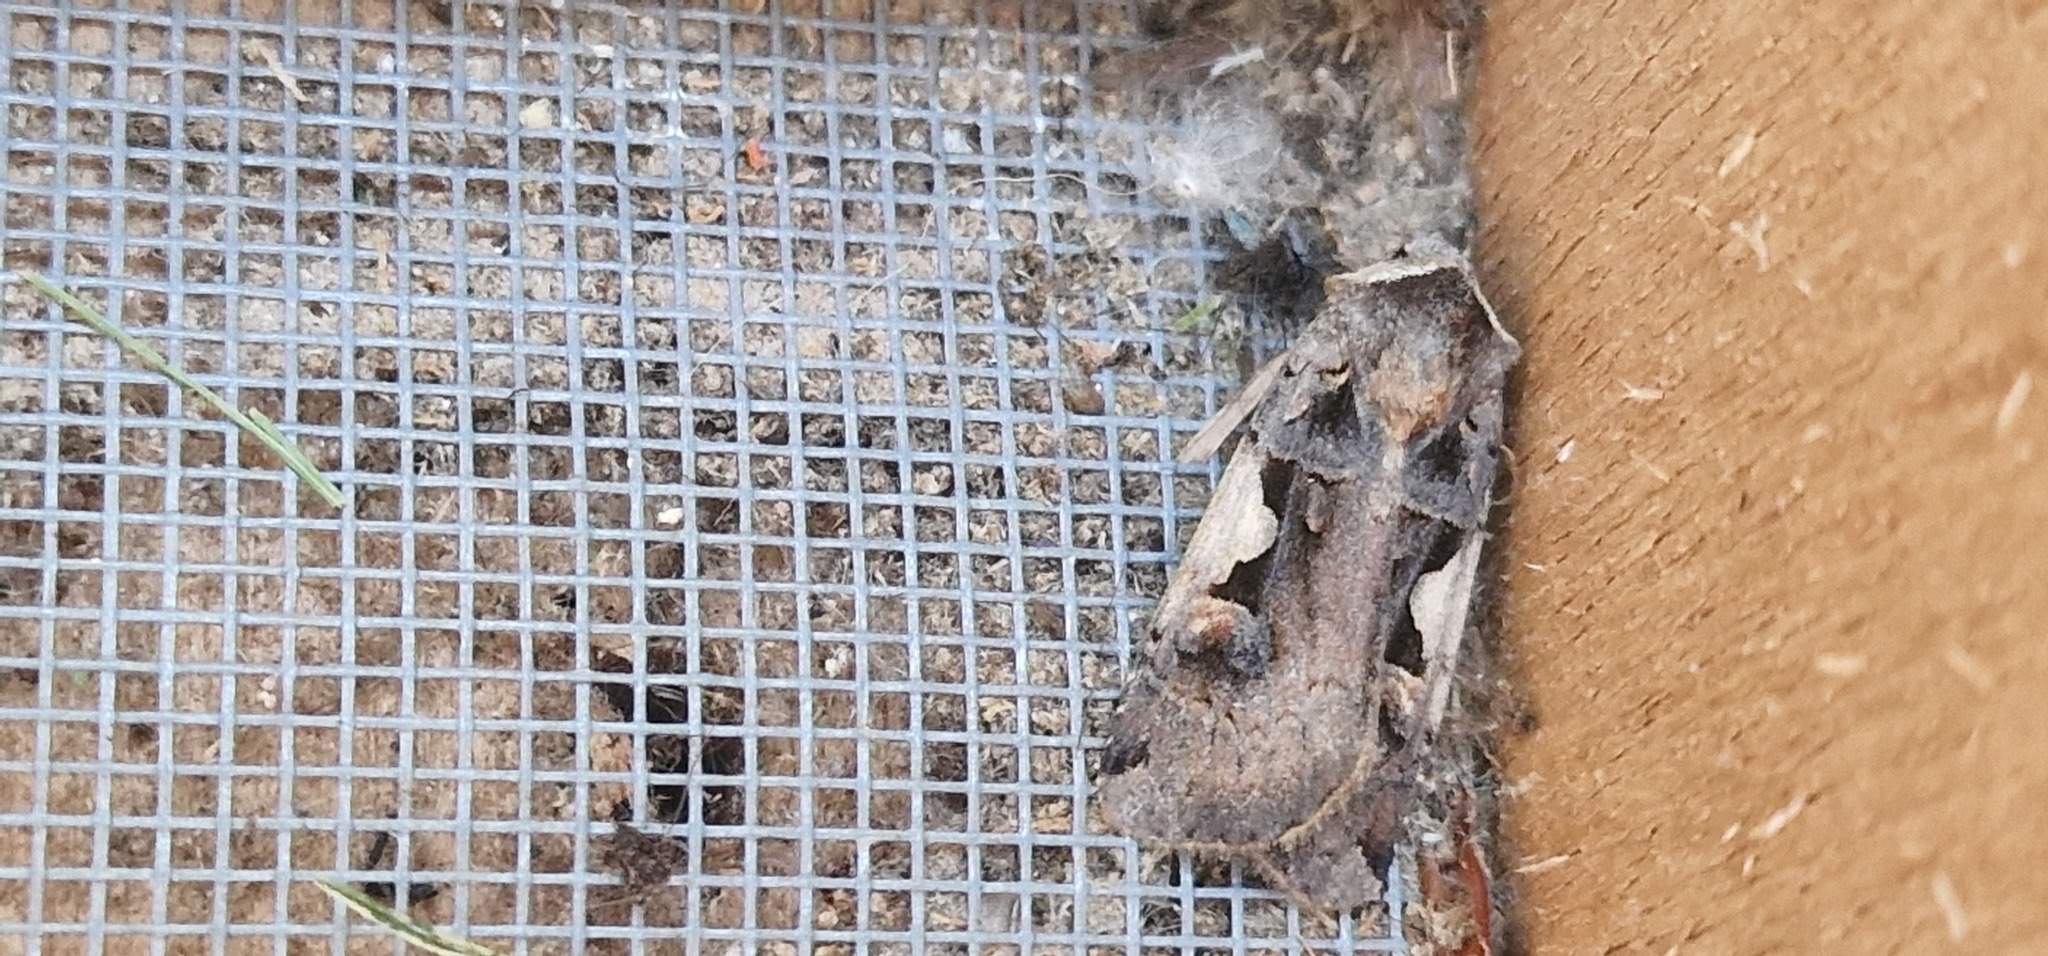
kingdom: Animalia
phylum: Arthropoda
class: Insecta
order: Lepidoptera
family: Noctuidae
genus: Xestia
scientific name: Xestia c-nigrum
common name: Setaceous hebrew character
